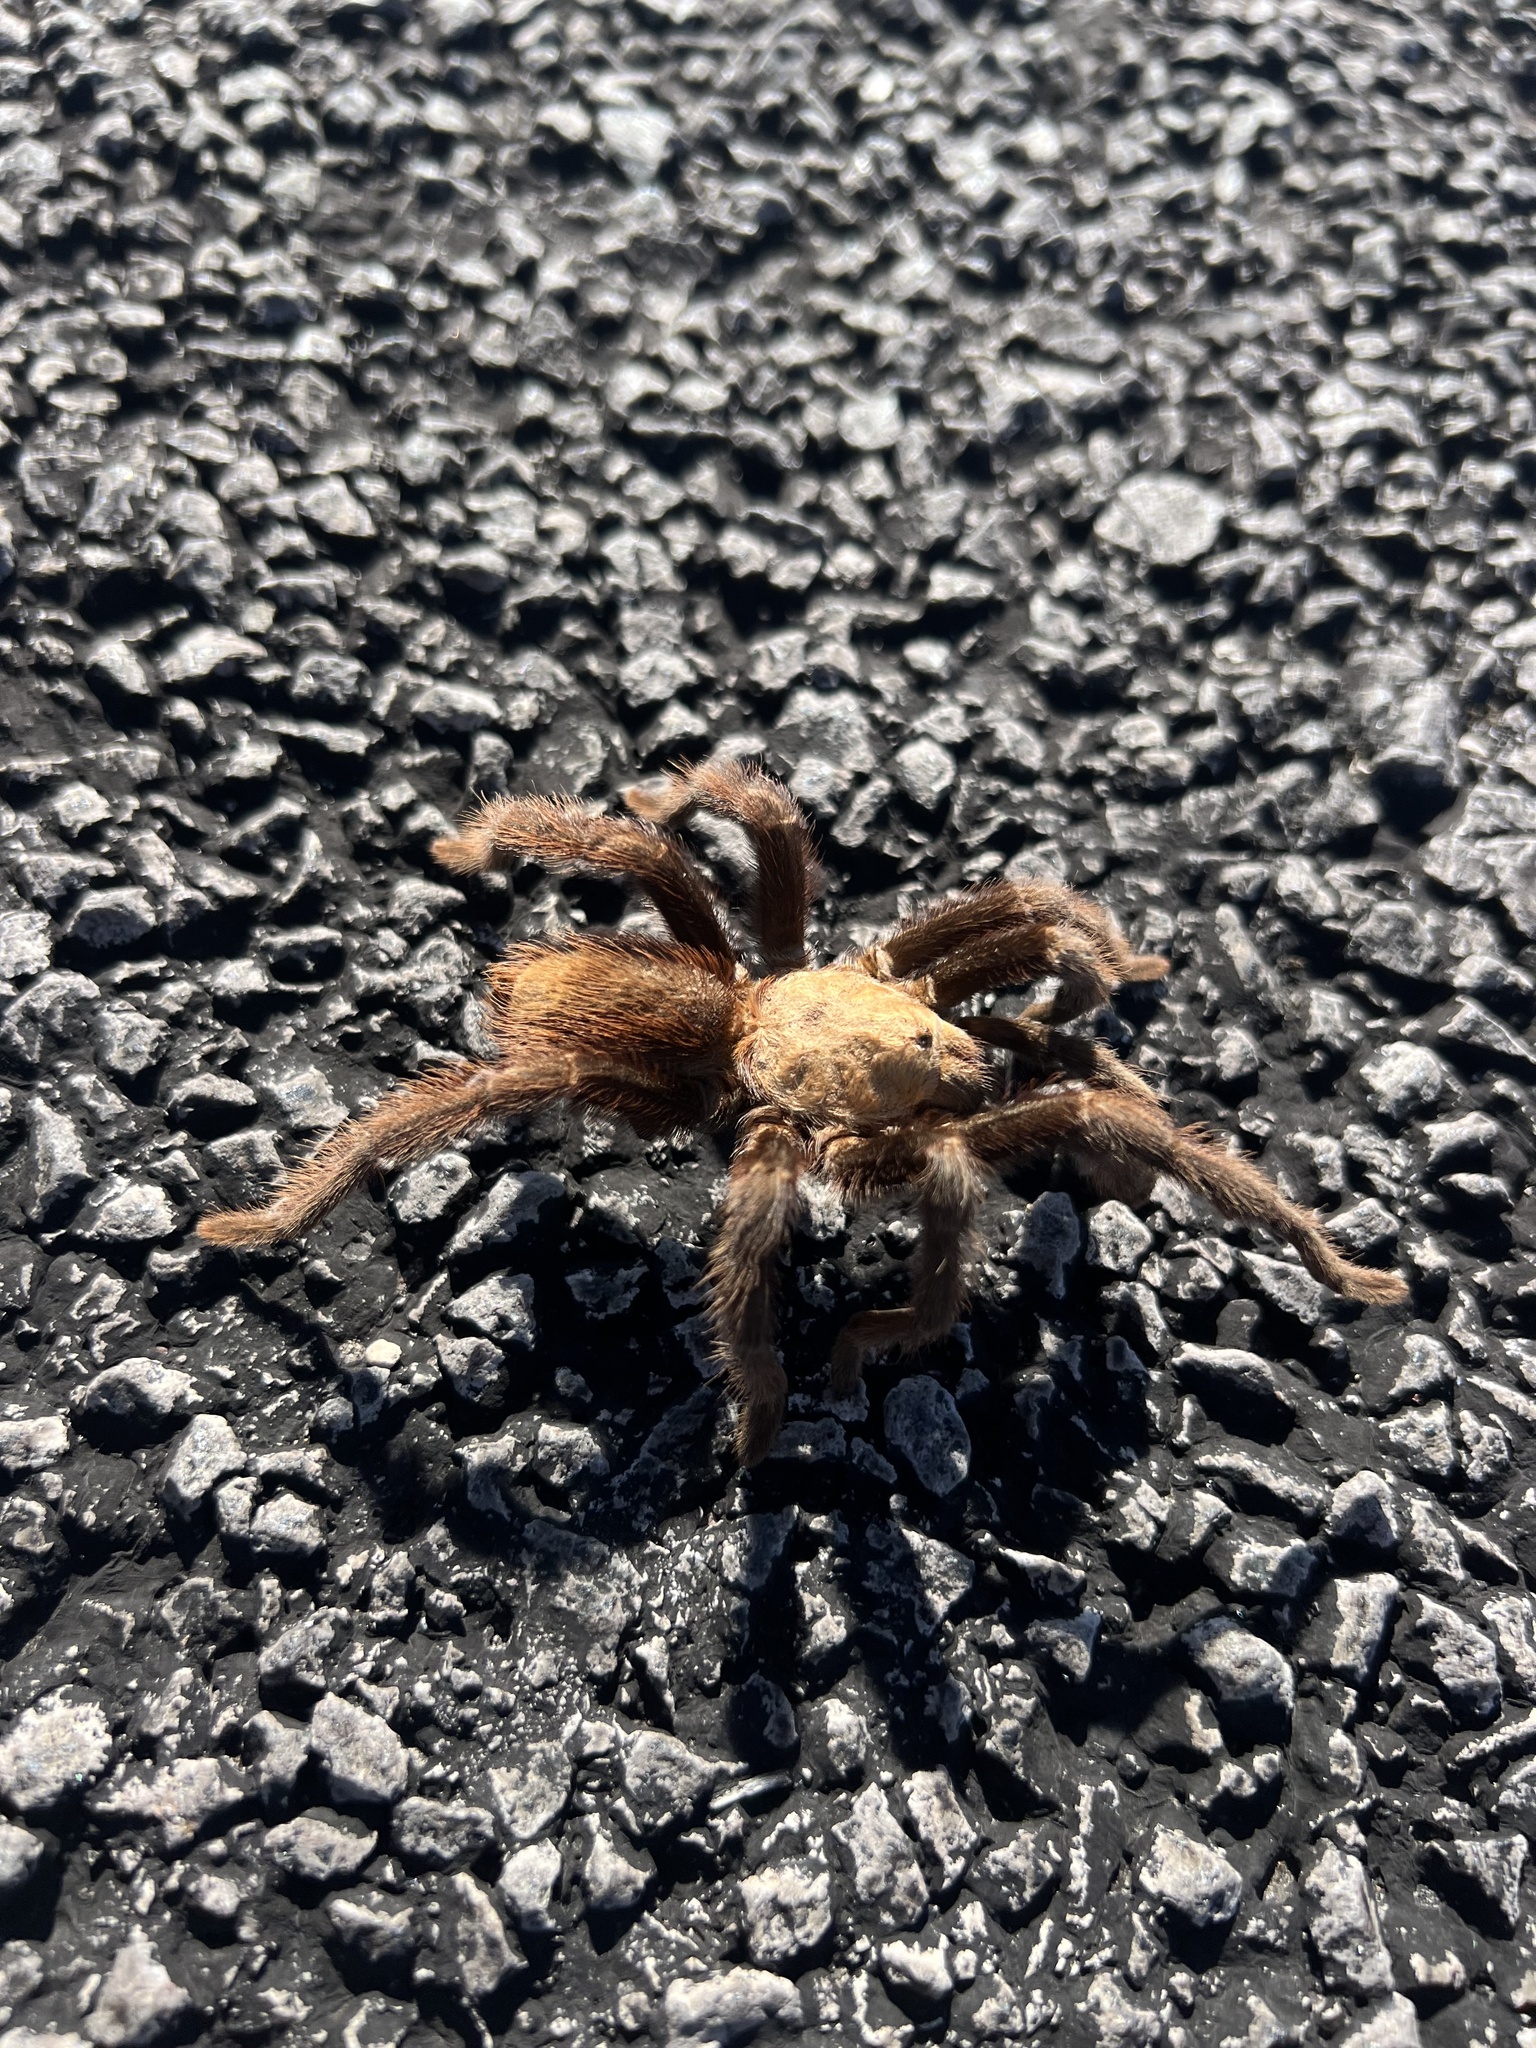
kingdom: Animalia
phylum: Arthropoda
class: Arachnida
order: Araneae
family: Theraphosidae
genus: Aphonopelma
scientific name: Aphonopelma hentzi
